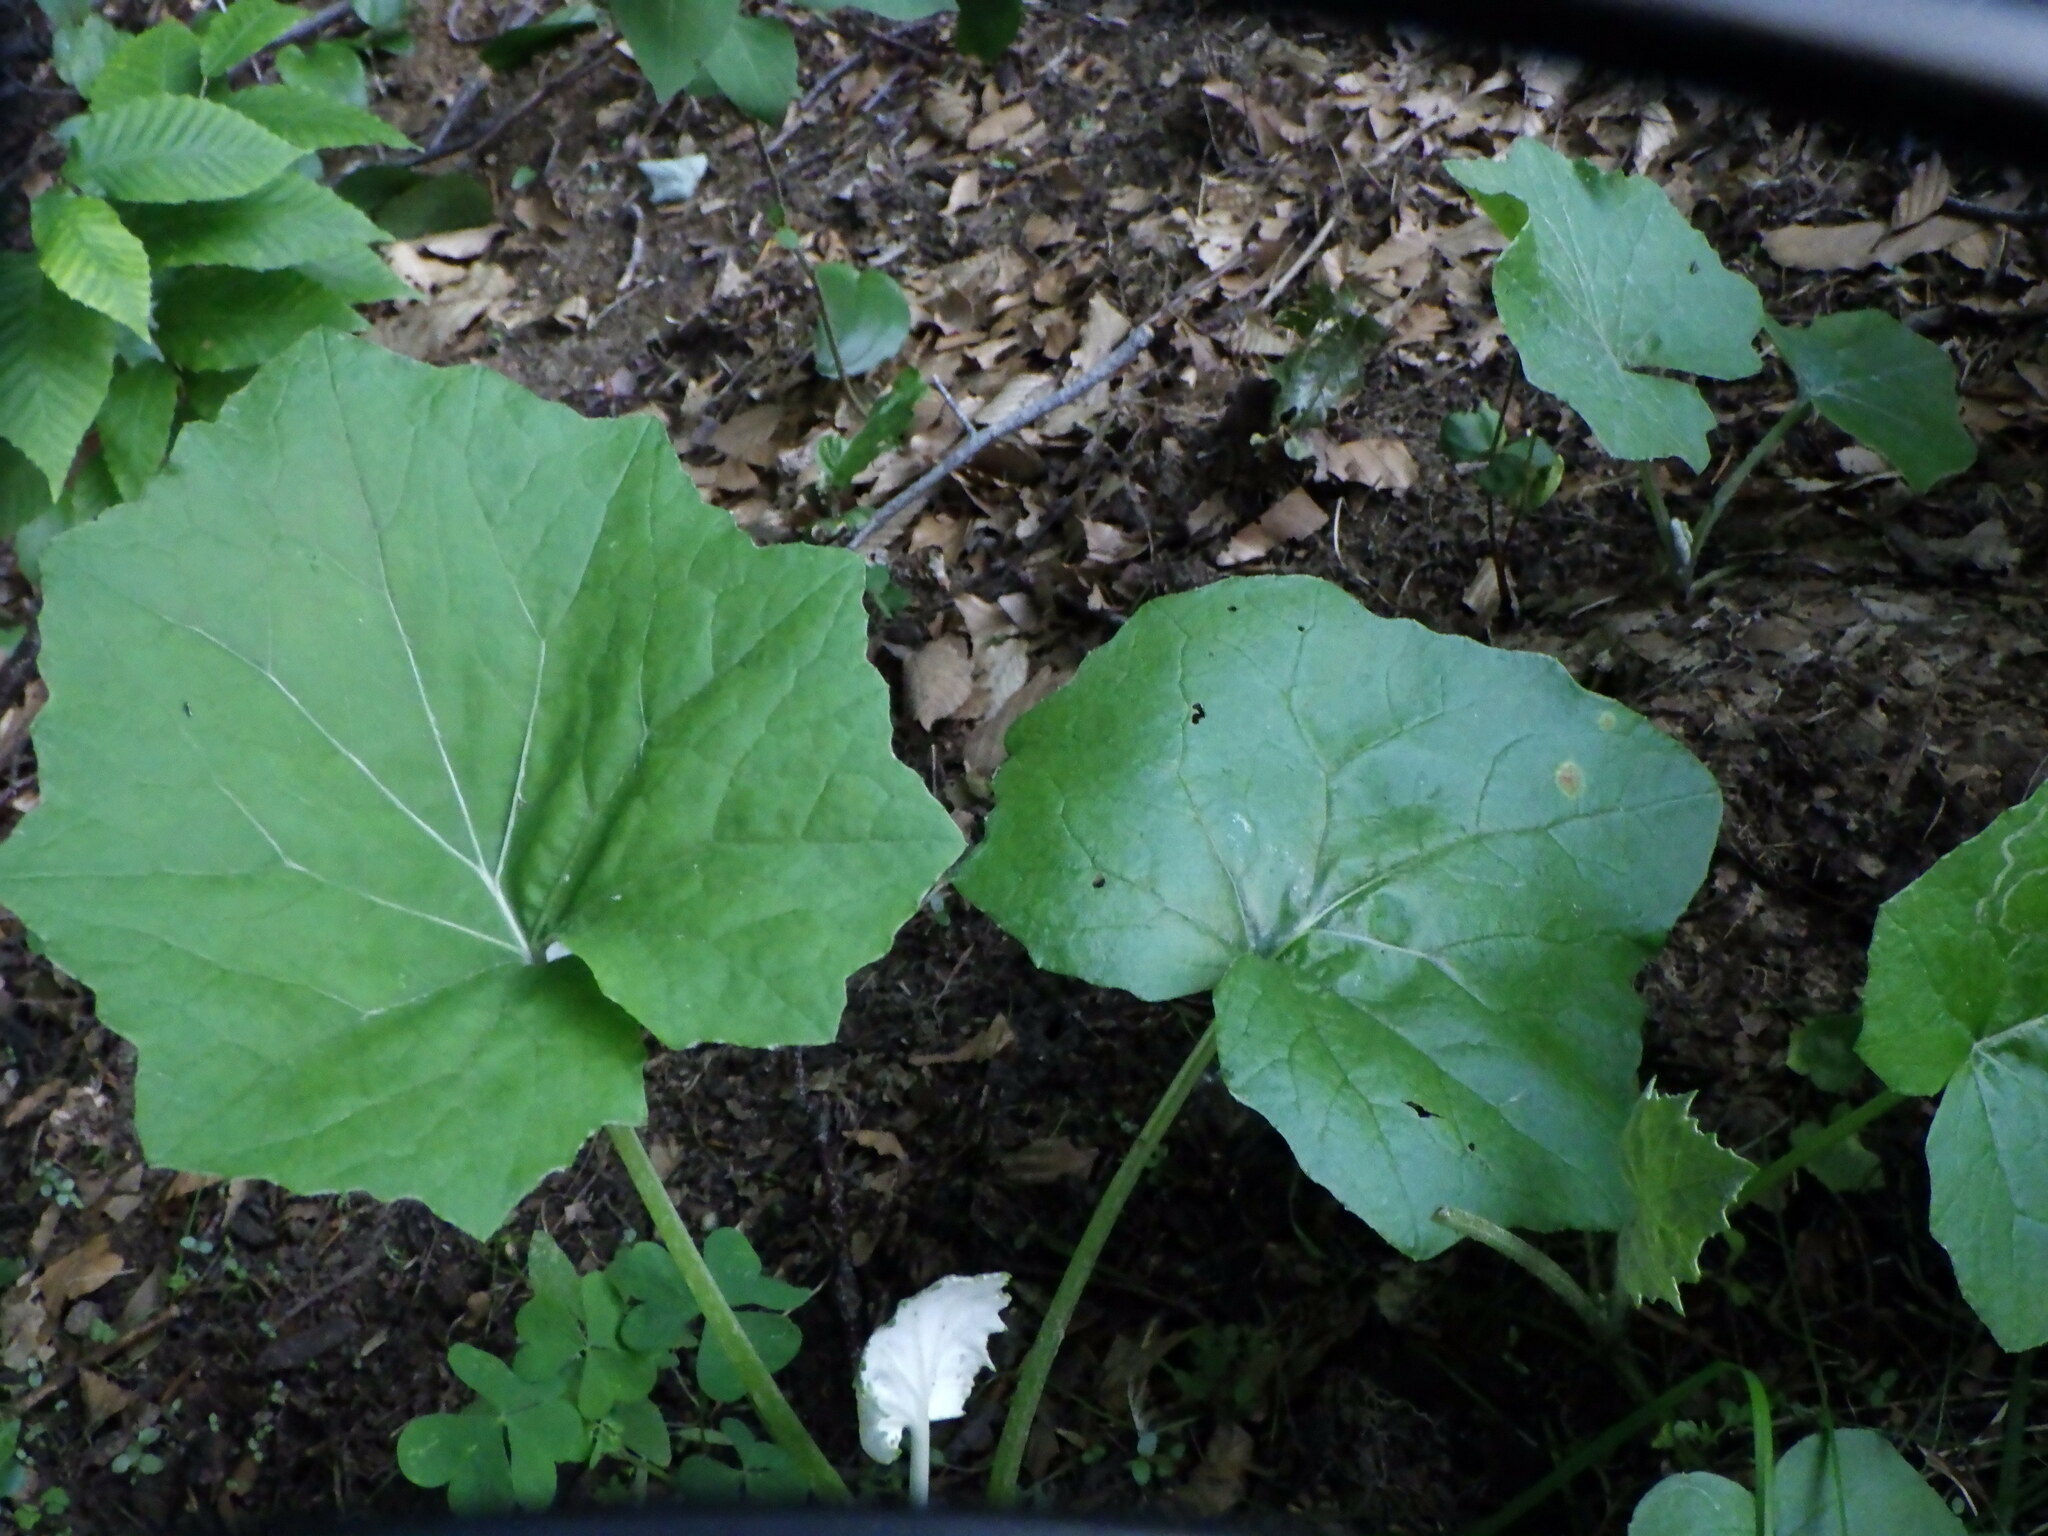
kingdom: Plantae
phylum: Tracheophyta
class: Magnoliopsida
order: Asterales
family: Asteraceae
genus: Tussilago
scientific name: Tussilago farfara
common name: Coltsfoot
